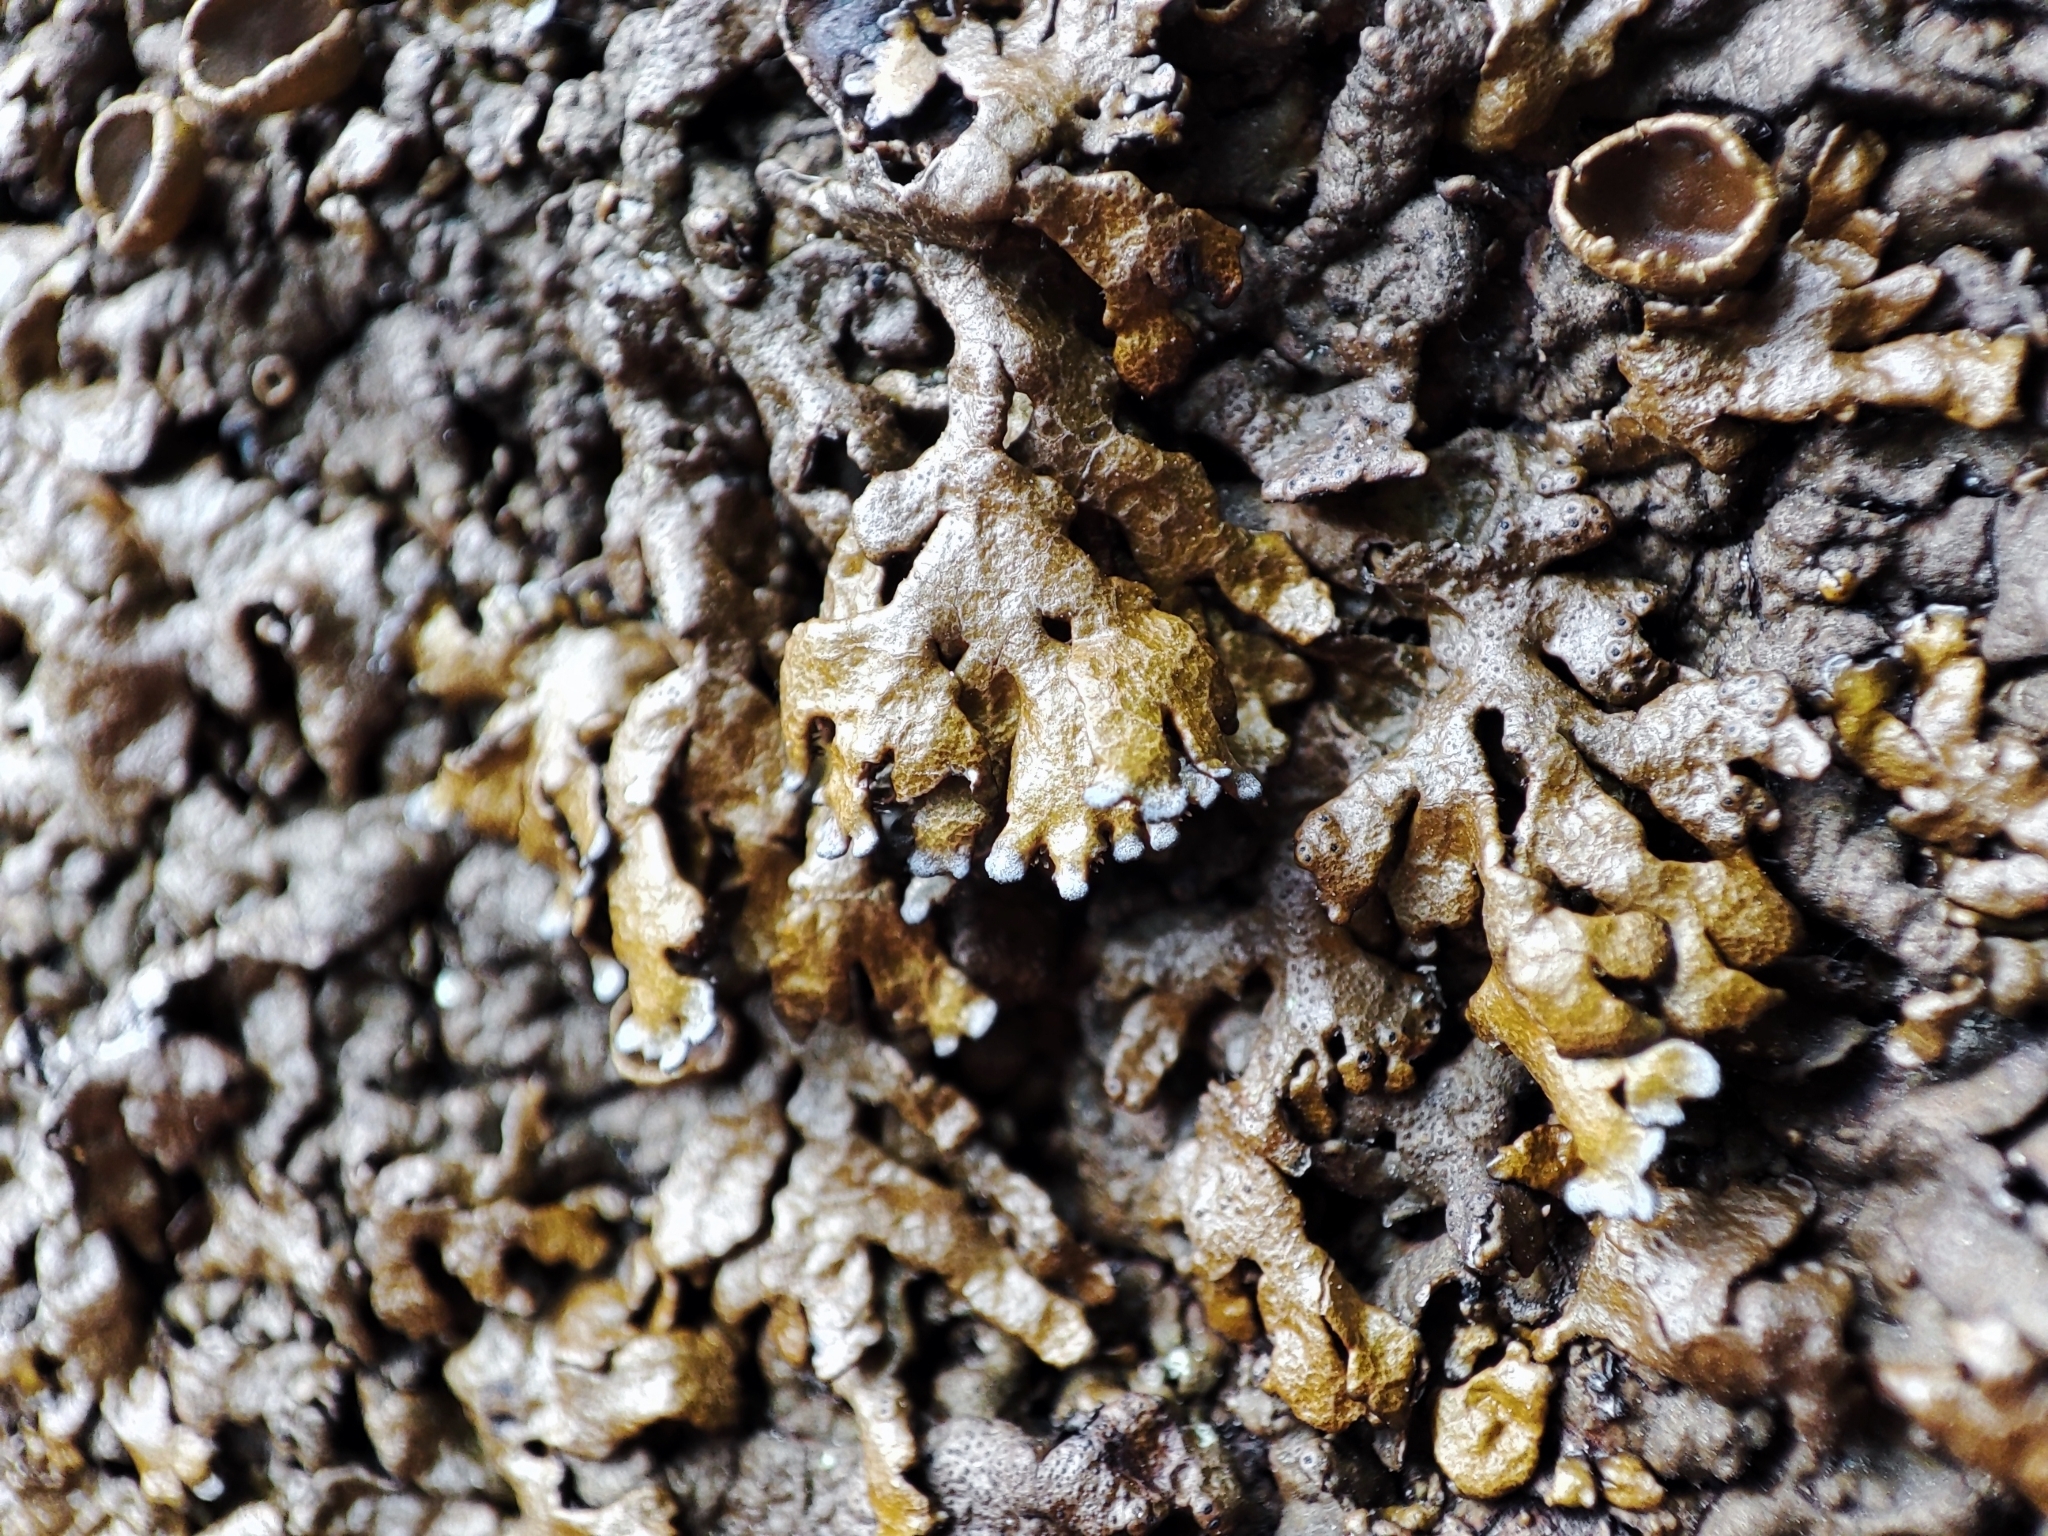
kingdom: Fungi
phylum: Ascomycota
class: Lecanoromycetes
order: Lecanorales
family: Parmeliaceae
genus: Xanthoparmelia
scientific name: Xanthoparmelia pulla
